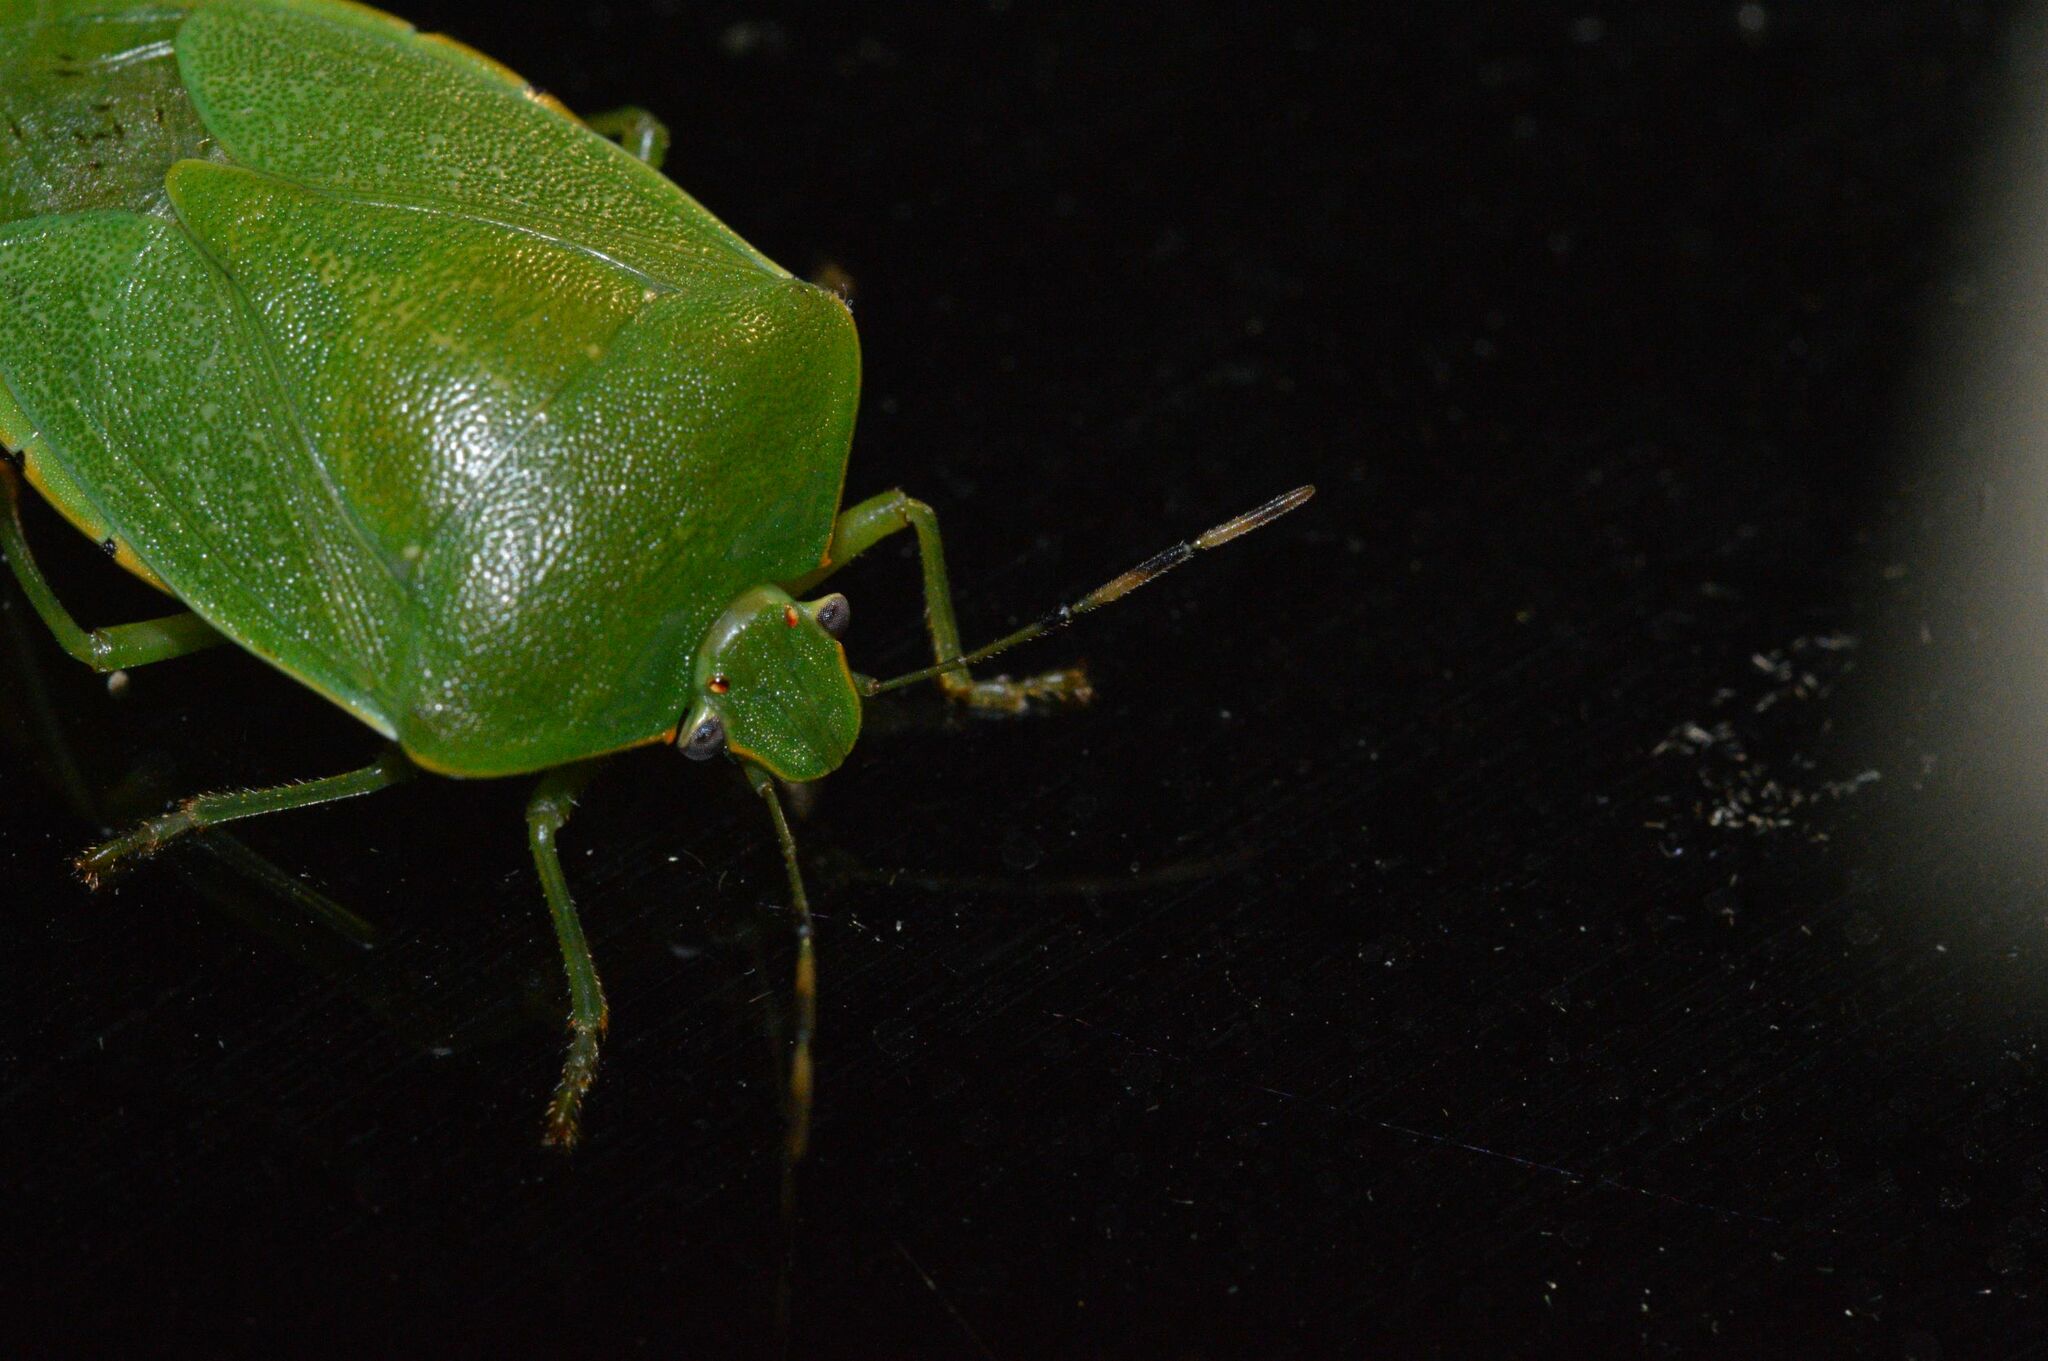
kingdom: Animalia
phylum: Arthropoda
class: Insecta
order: Hemiptera
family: Pentatomidae
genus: Chinavia
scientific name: Chinavia hilaris
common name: Green stink bug
